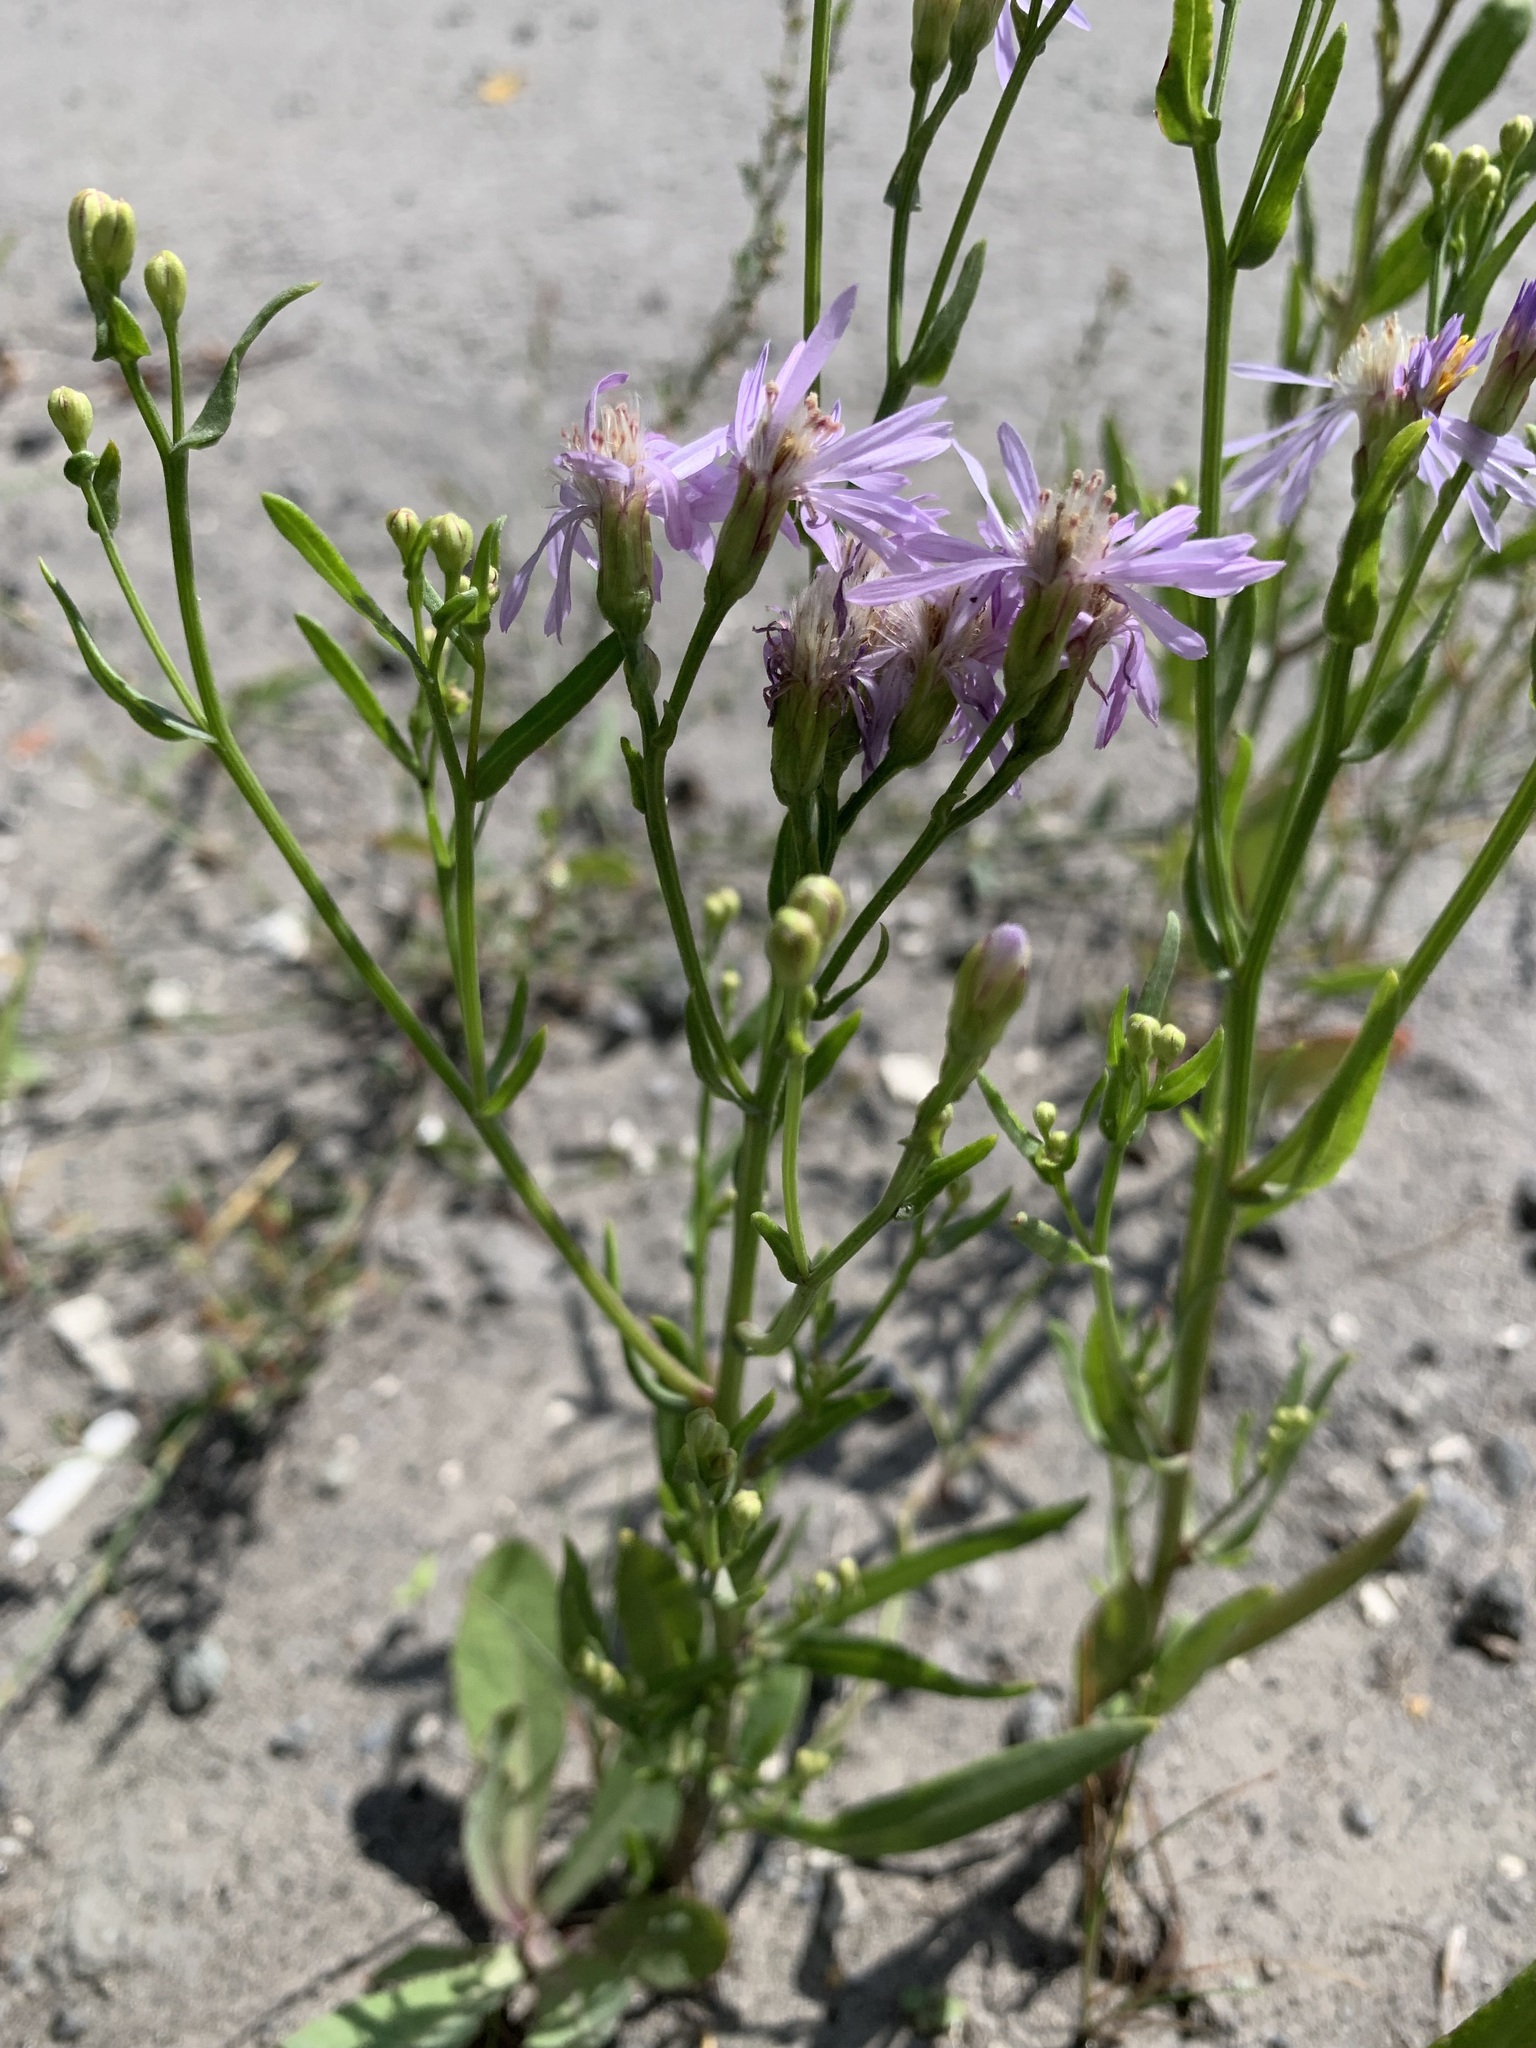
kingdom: Plantae
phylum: Tracheophyta
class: Magnoliopsida
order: Asterales
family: Asteraceae
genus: Tripolium
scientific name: Tripolium pannonicum
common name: Sea aster
